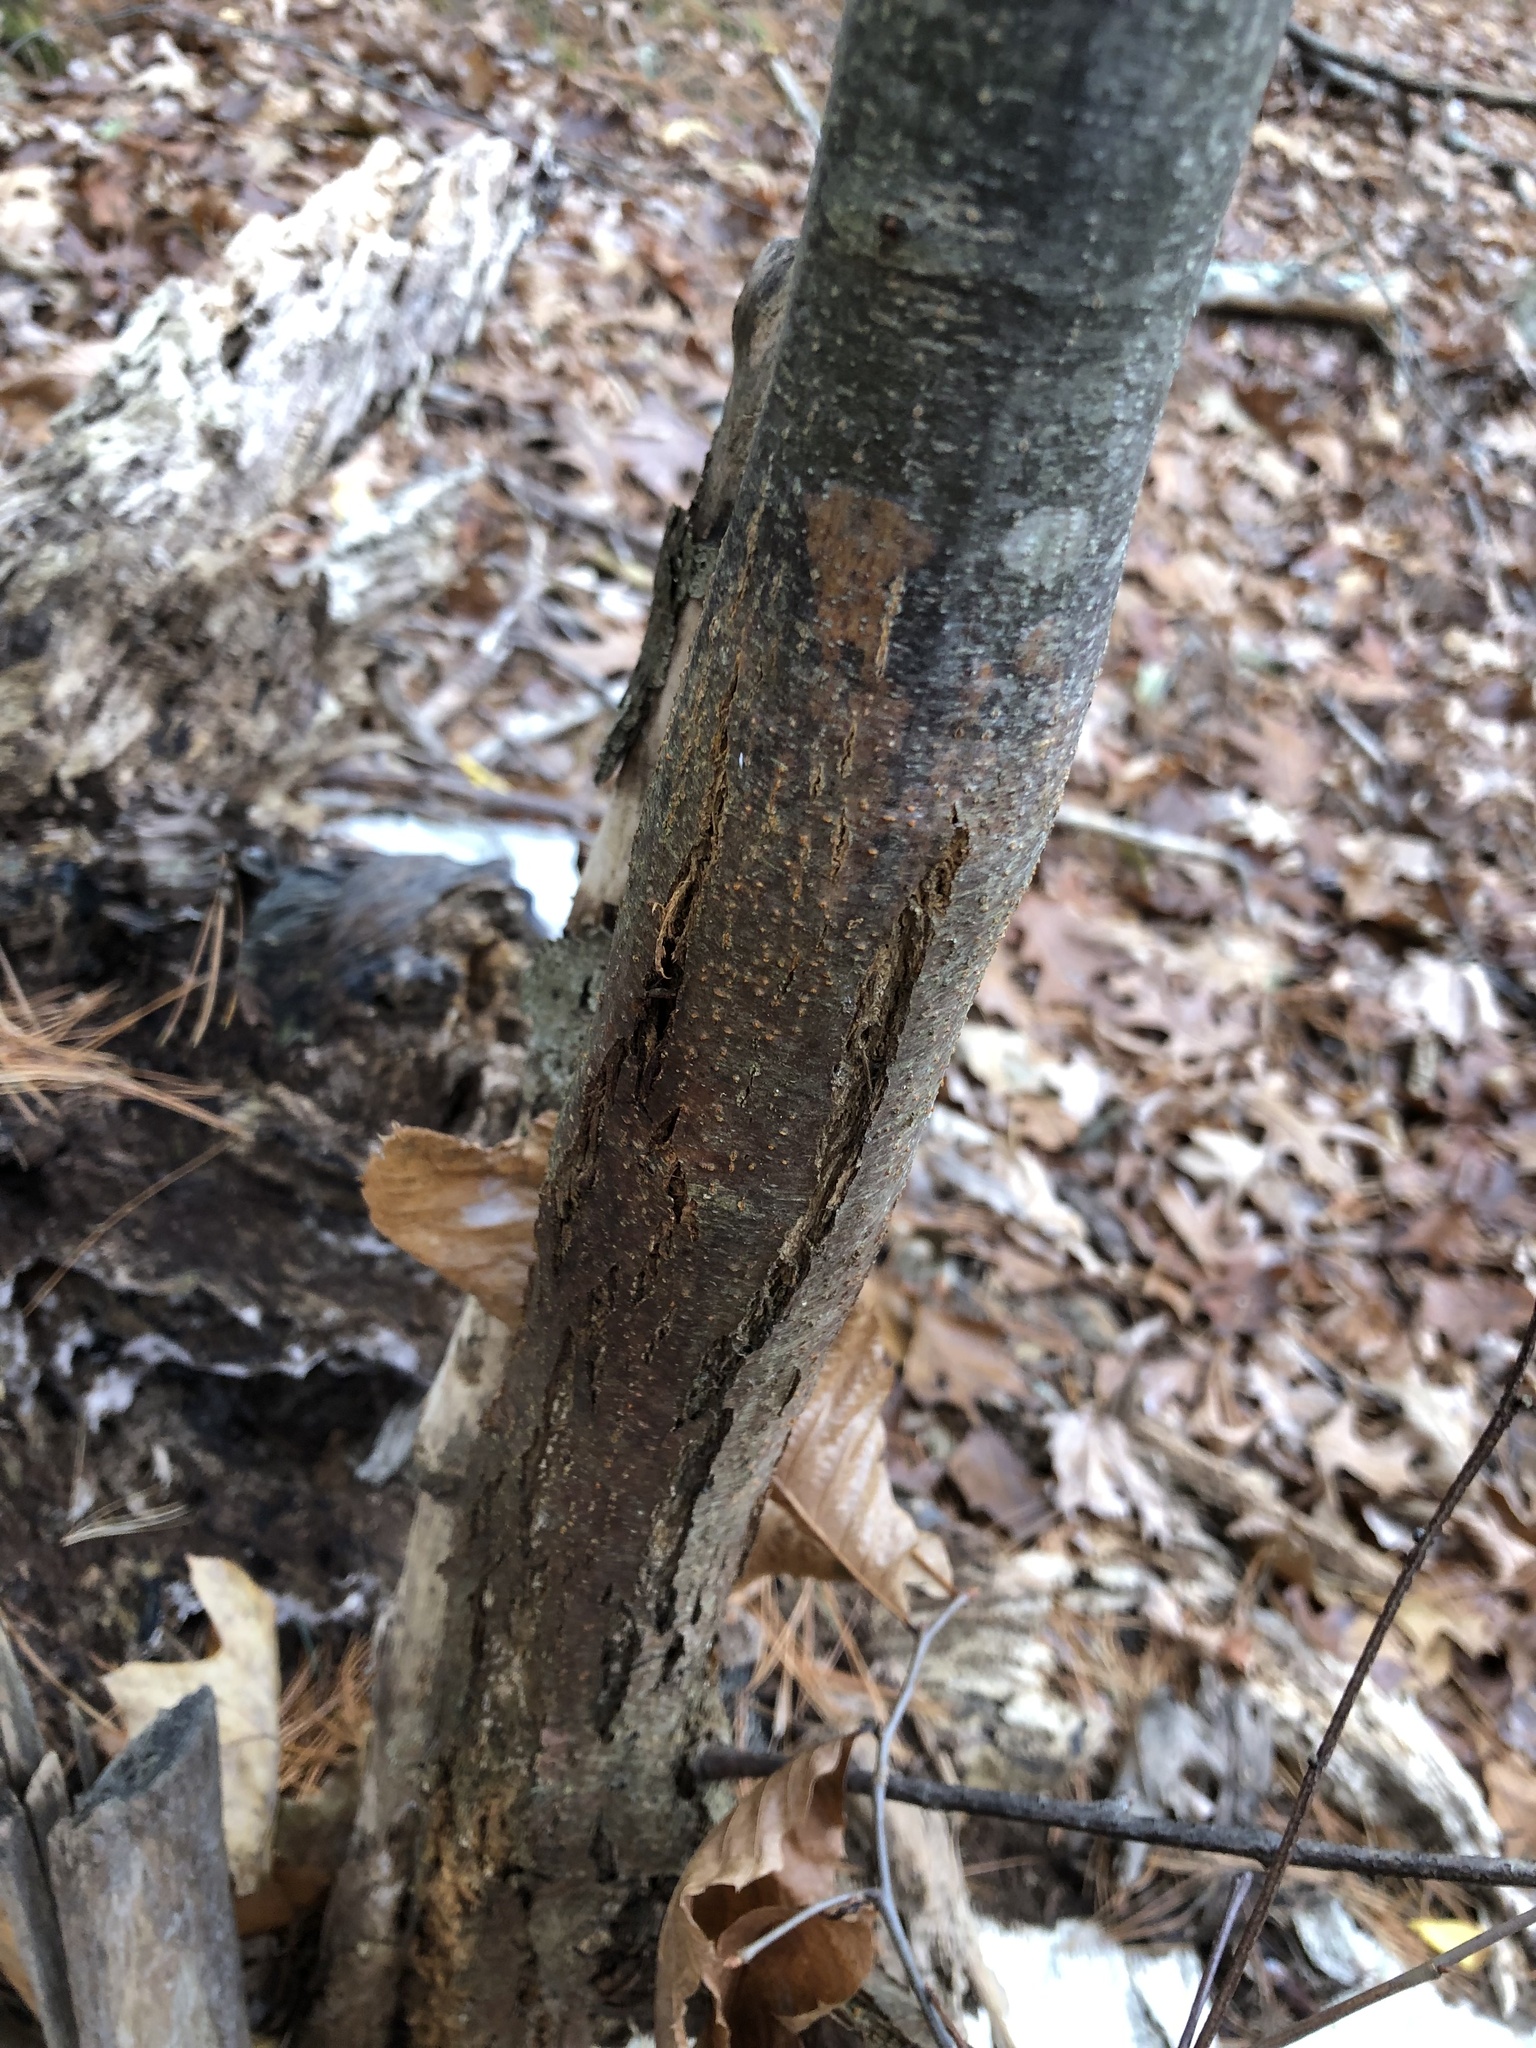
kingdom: Fungi
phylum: Ascomycota
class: Sordariomycetes
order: Diaporthales
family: Cryphonectriaceae
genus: Cryphonectria
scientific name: Cryphonectria parasitica
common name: Chestnut blight
